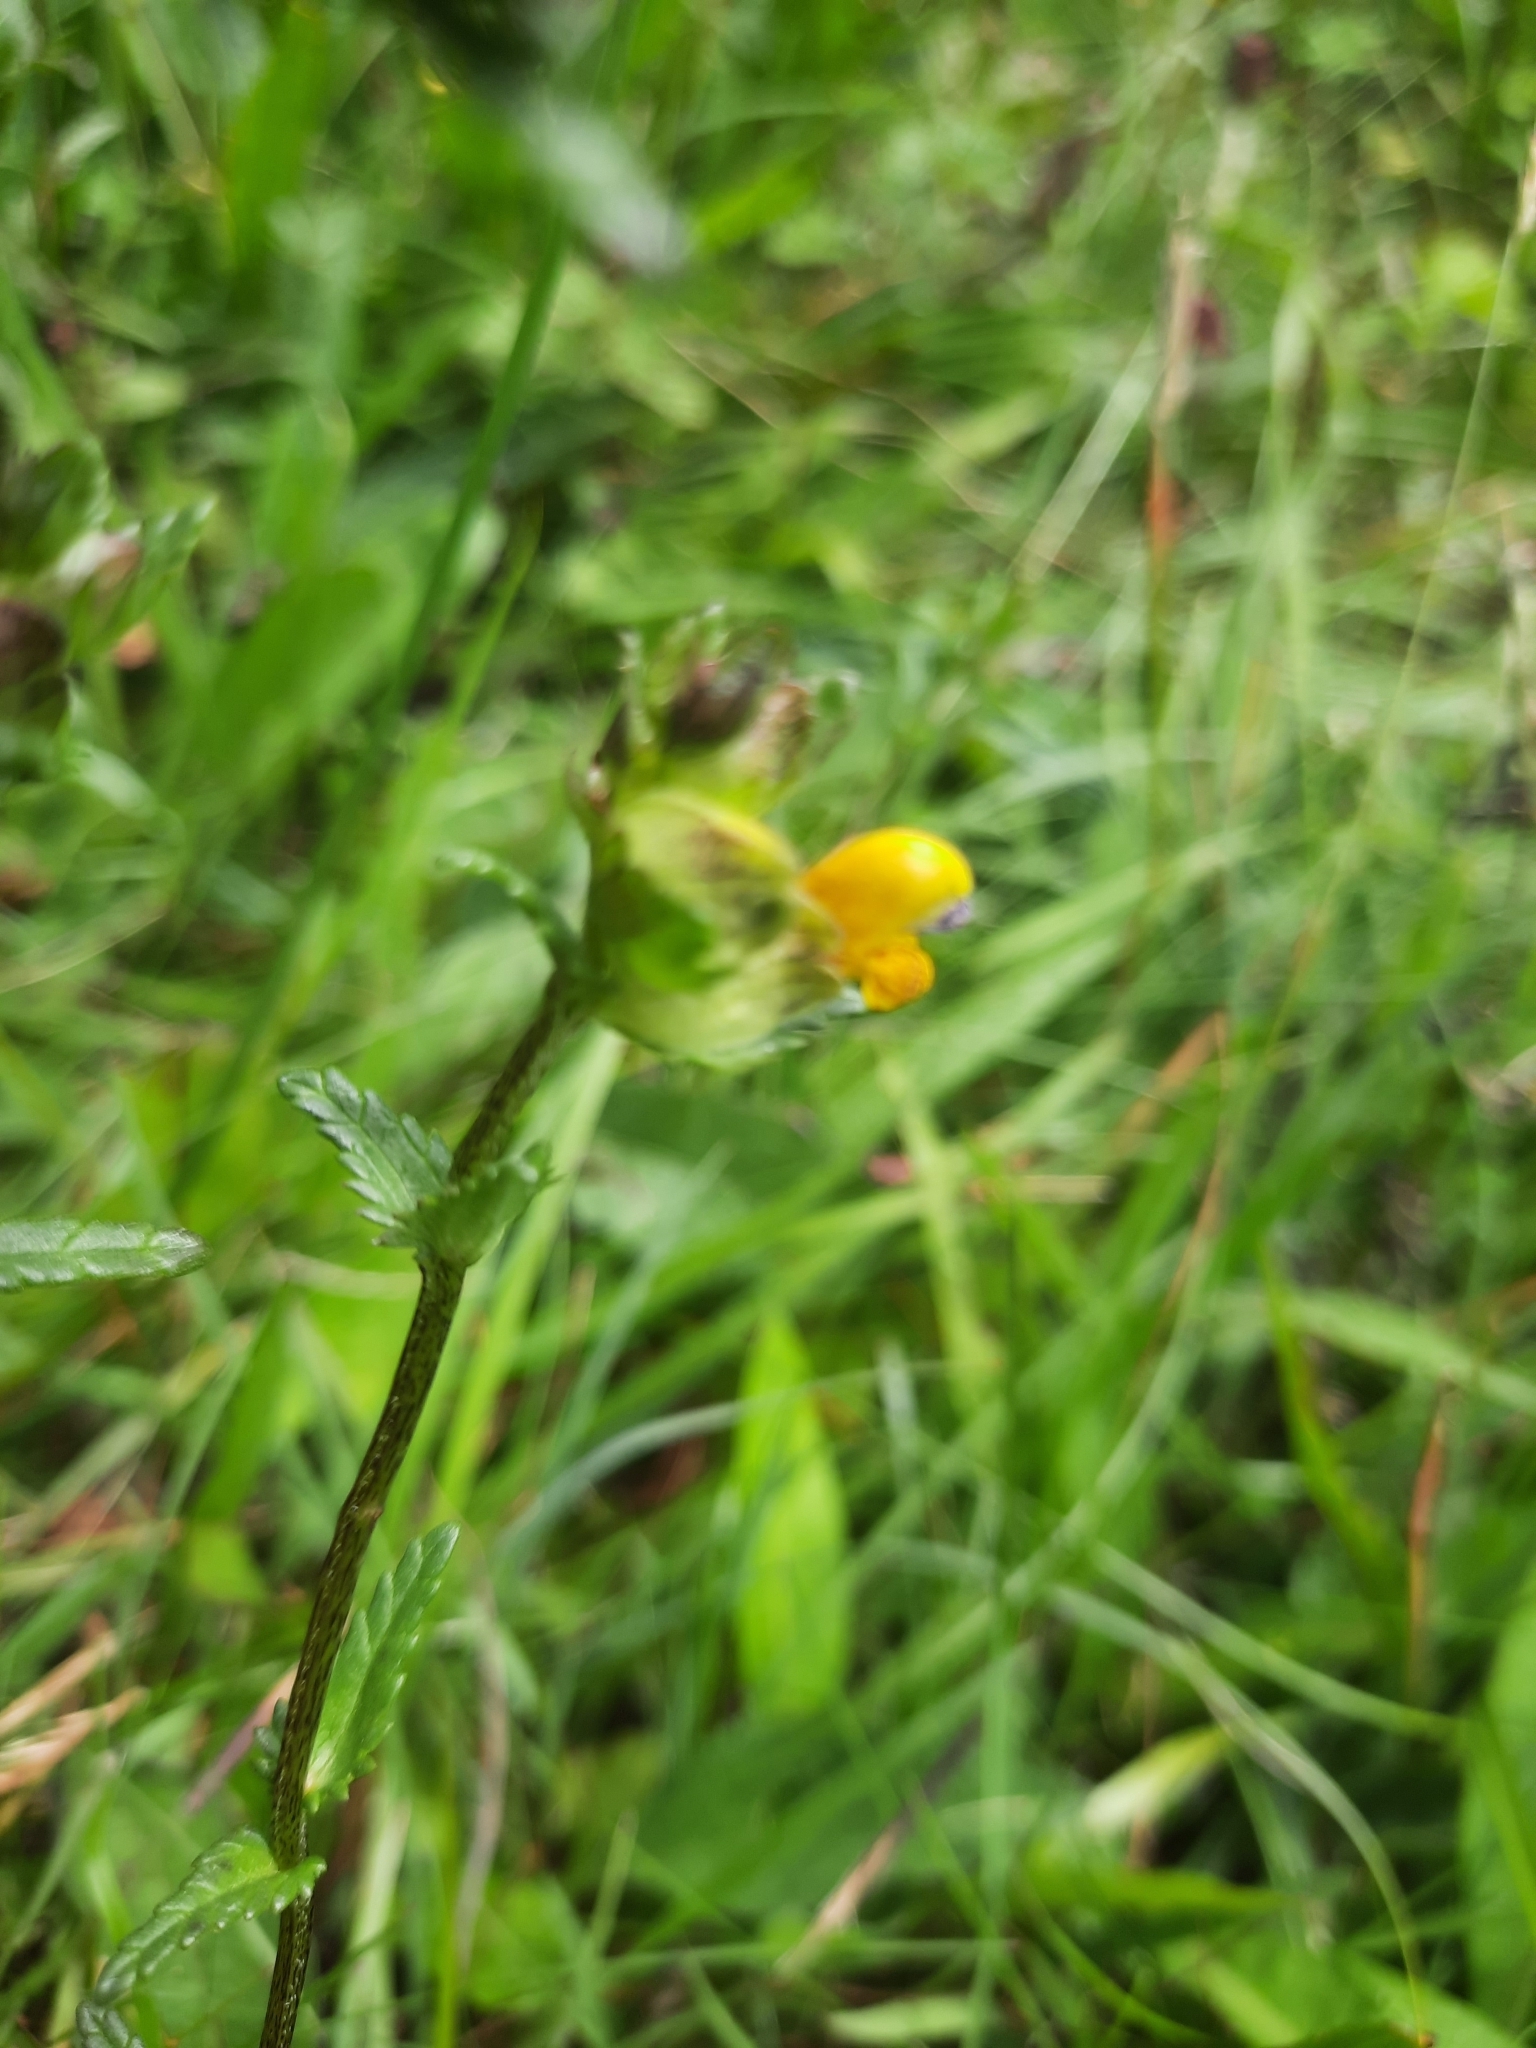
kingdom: Plantae
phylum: Tracheophyta
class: Magnoliopsida
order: Lamiales
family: Orobanchaceae
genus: Rhinanthus
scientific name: Rhinanthus minor
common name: Yellow-rattle
